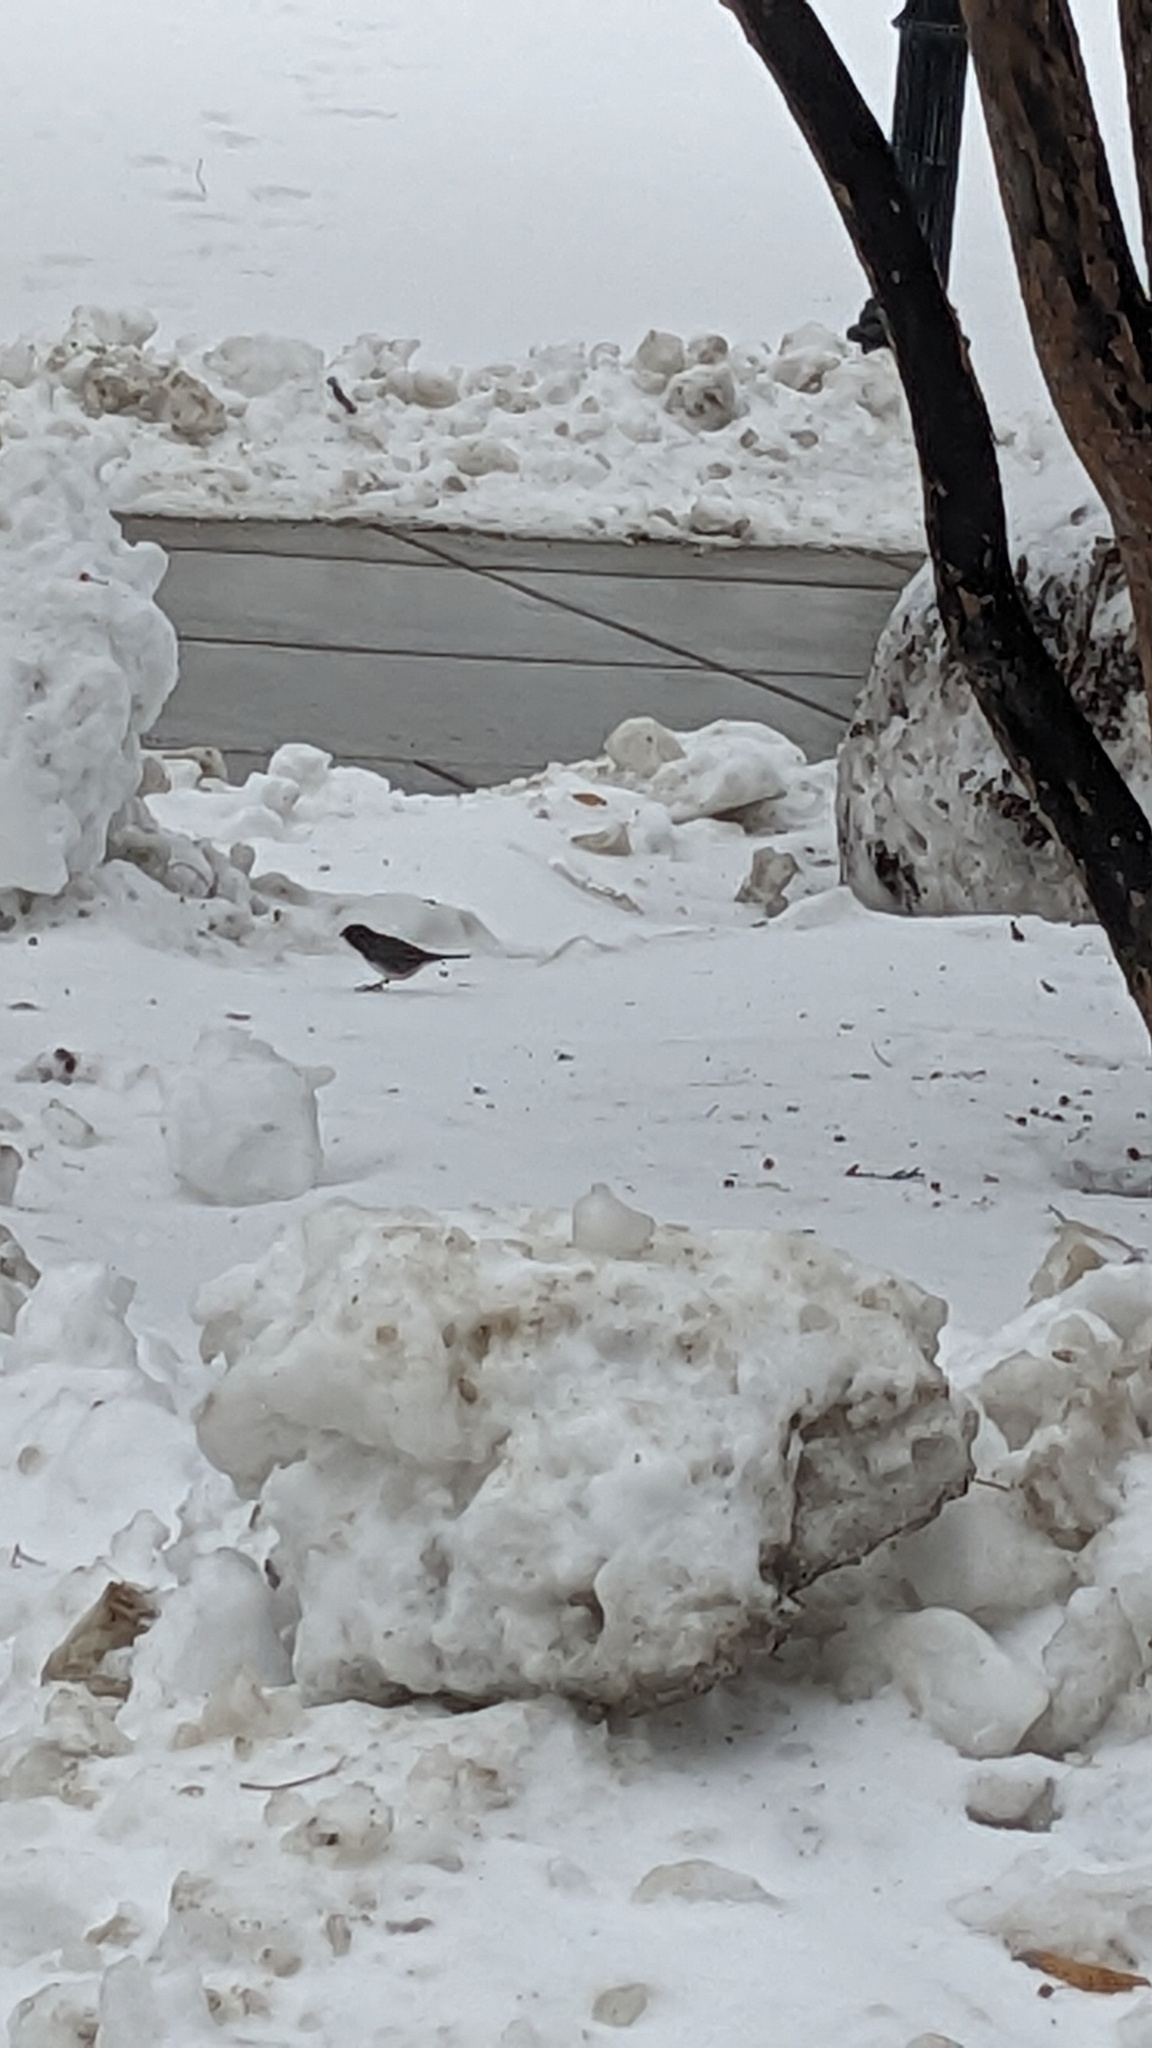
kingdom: Animalia
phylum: Chordata
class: Aves
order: Passeriformes
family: Passerellidae
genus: Junco
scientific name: Junco hyemalis
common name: Dark-eyed junco
